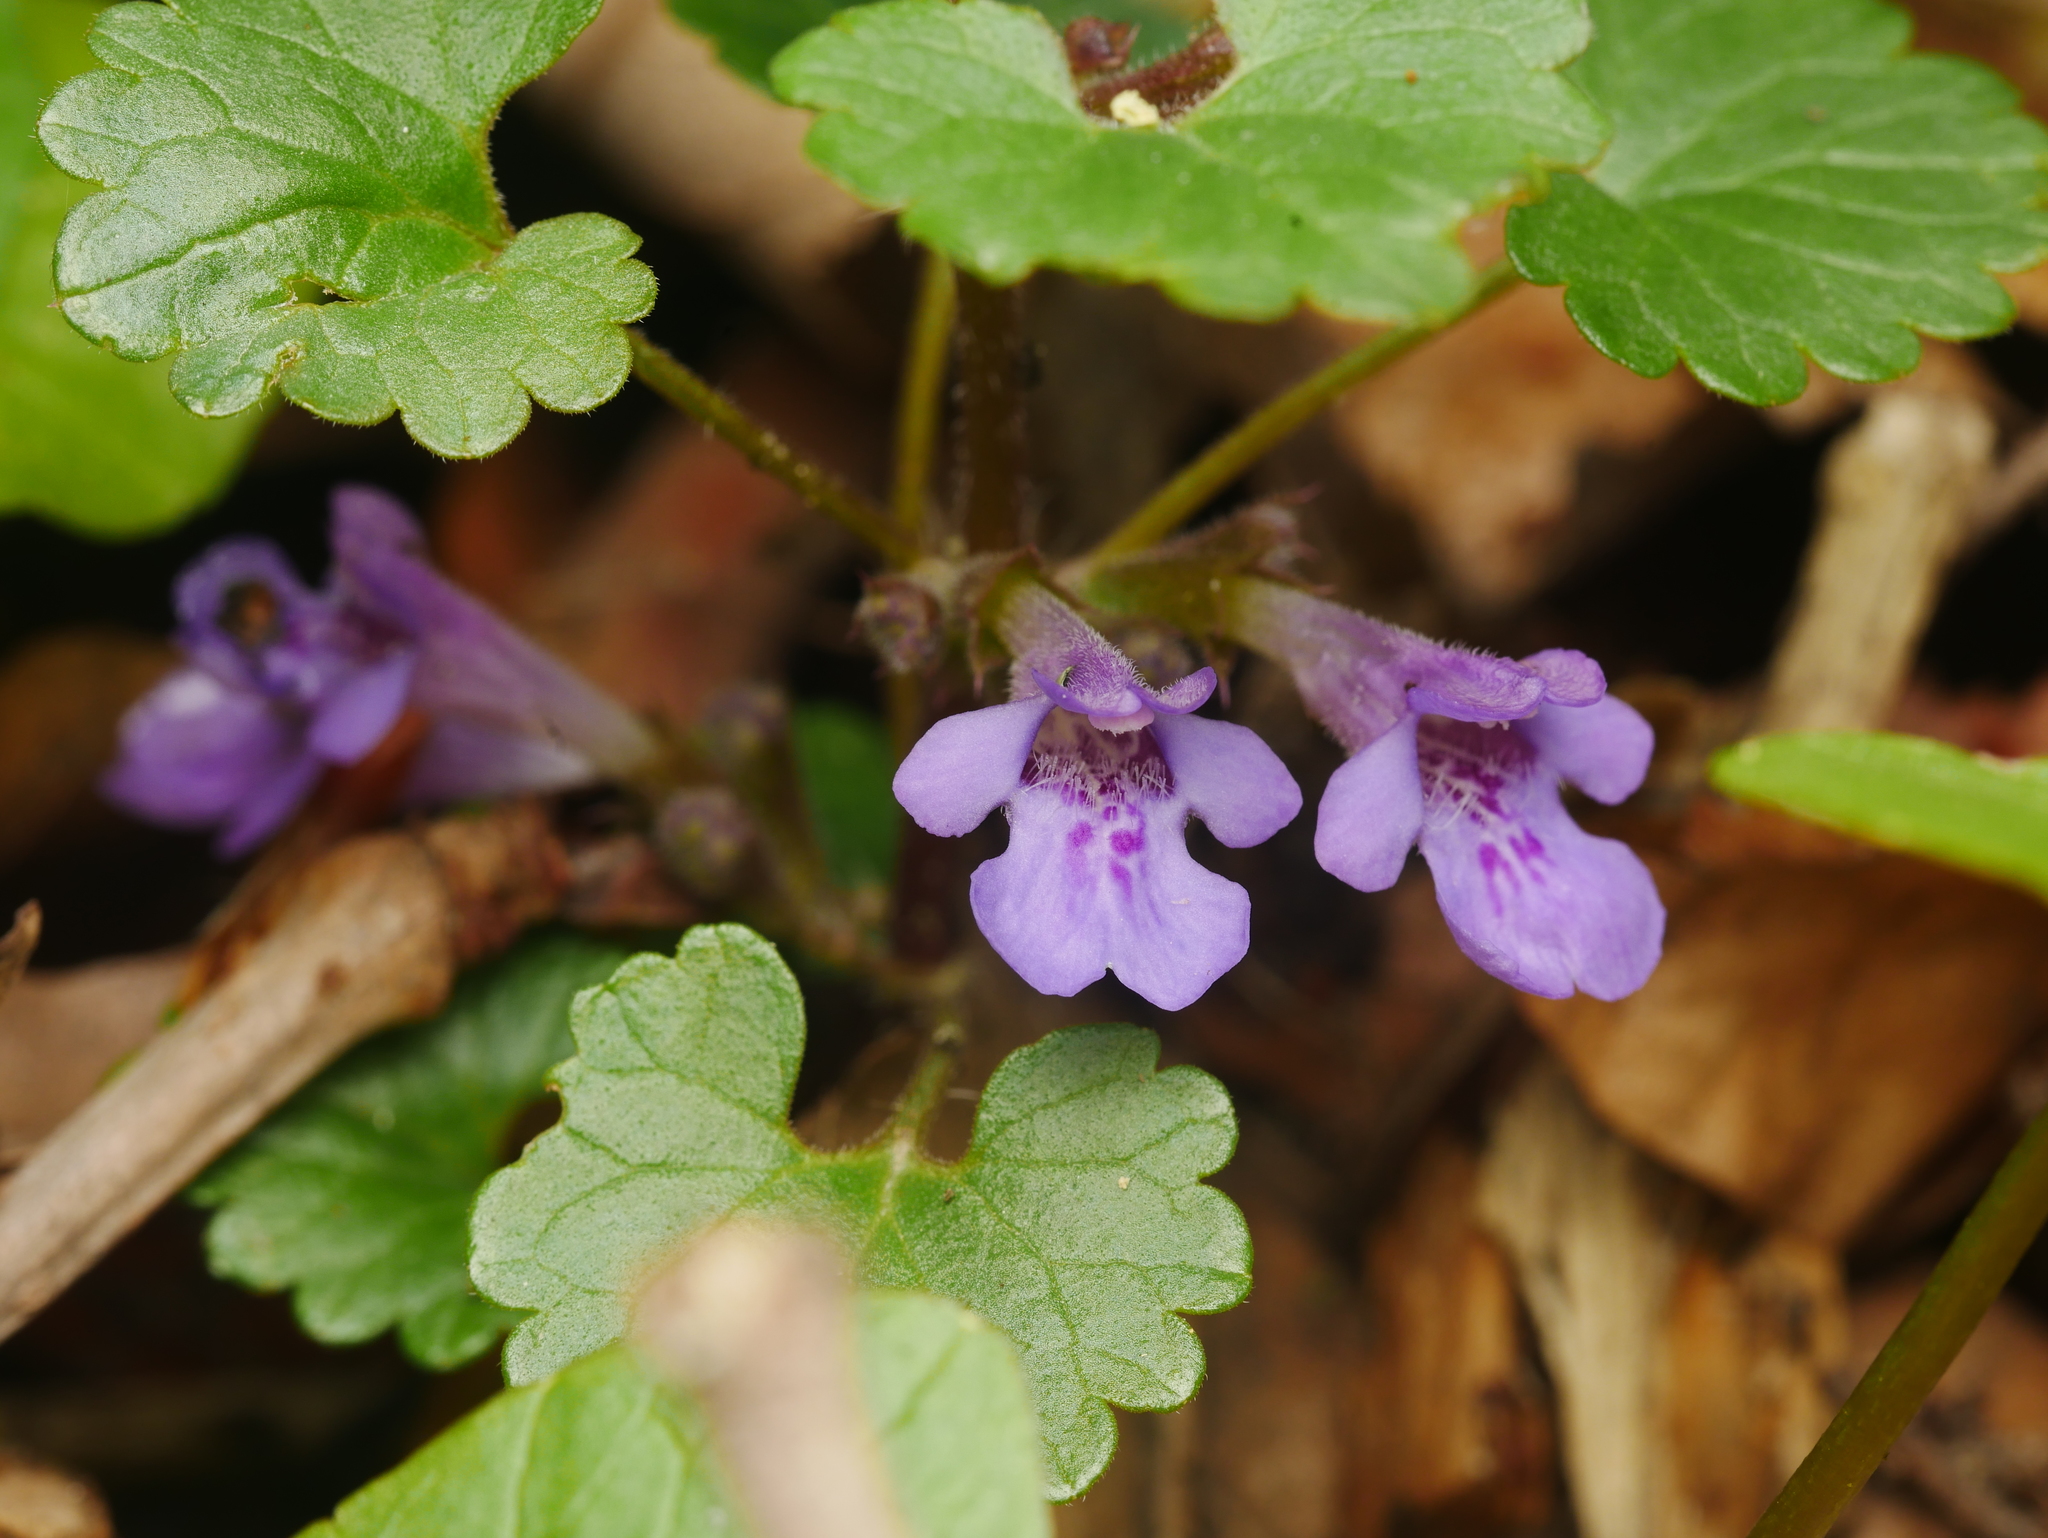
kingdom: Plantae
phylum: Tracheophyta
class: Magnoliopsida
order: Lamiales
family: Lamiaceae
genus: Glechoma
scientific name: Glechoma hederacea
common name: Ground ivy
